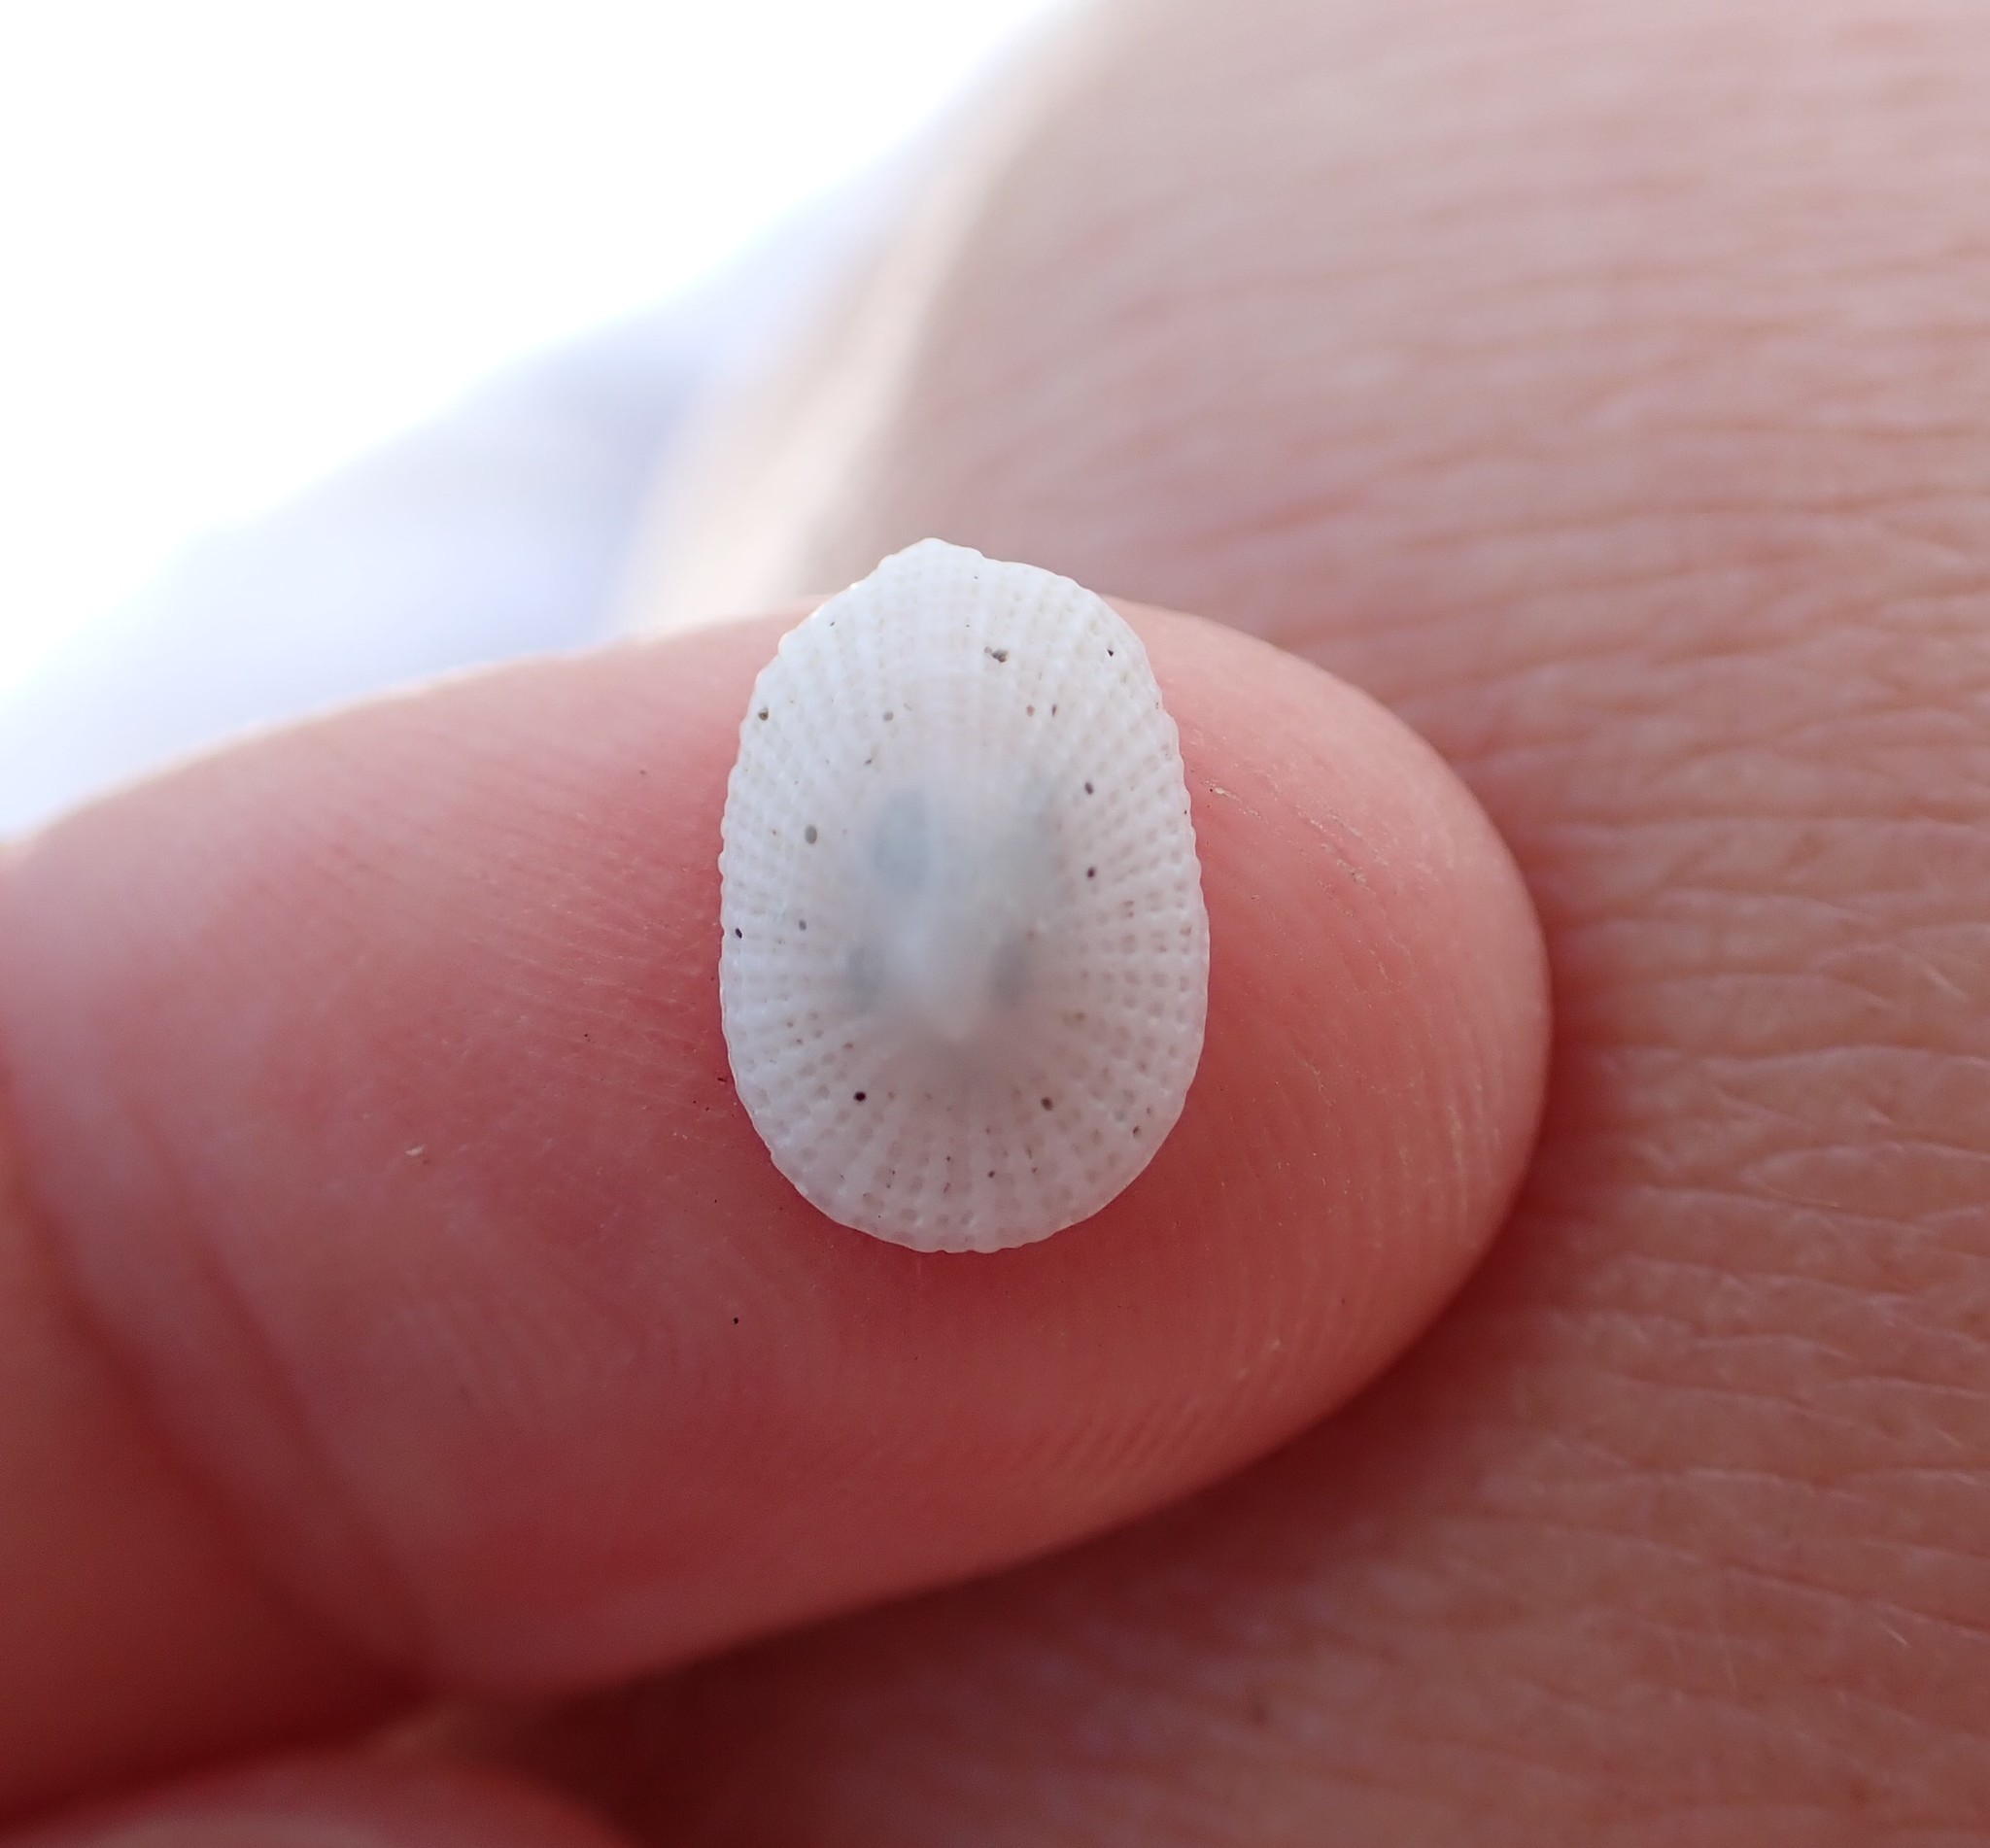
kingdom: Animalia
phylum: Mollusca
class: Gastropoda
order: Lepetellida
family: Fissurellidae
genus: Tugali
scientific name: Tugali suteri
